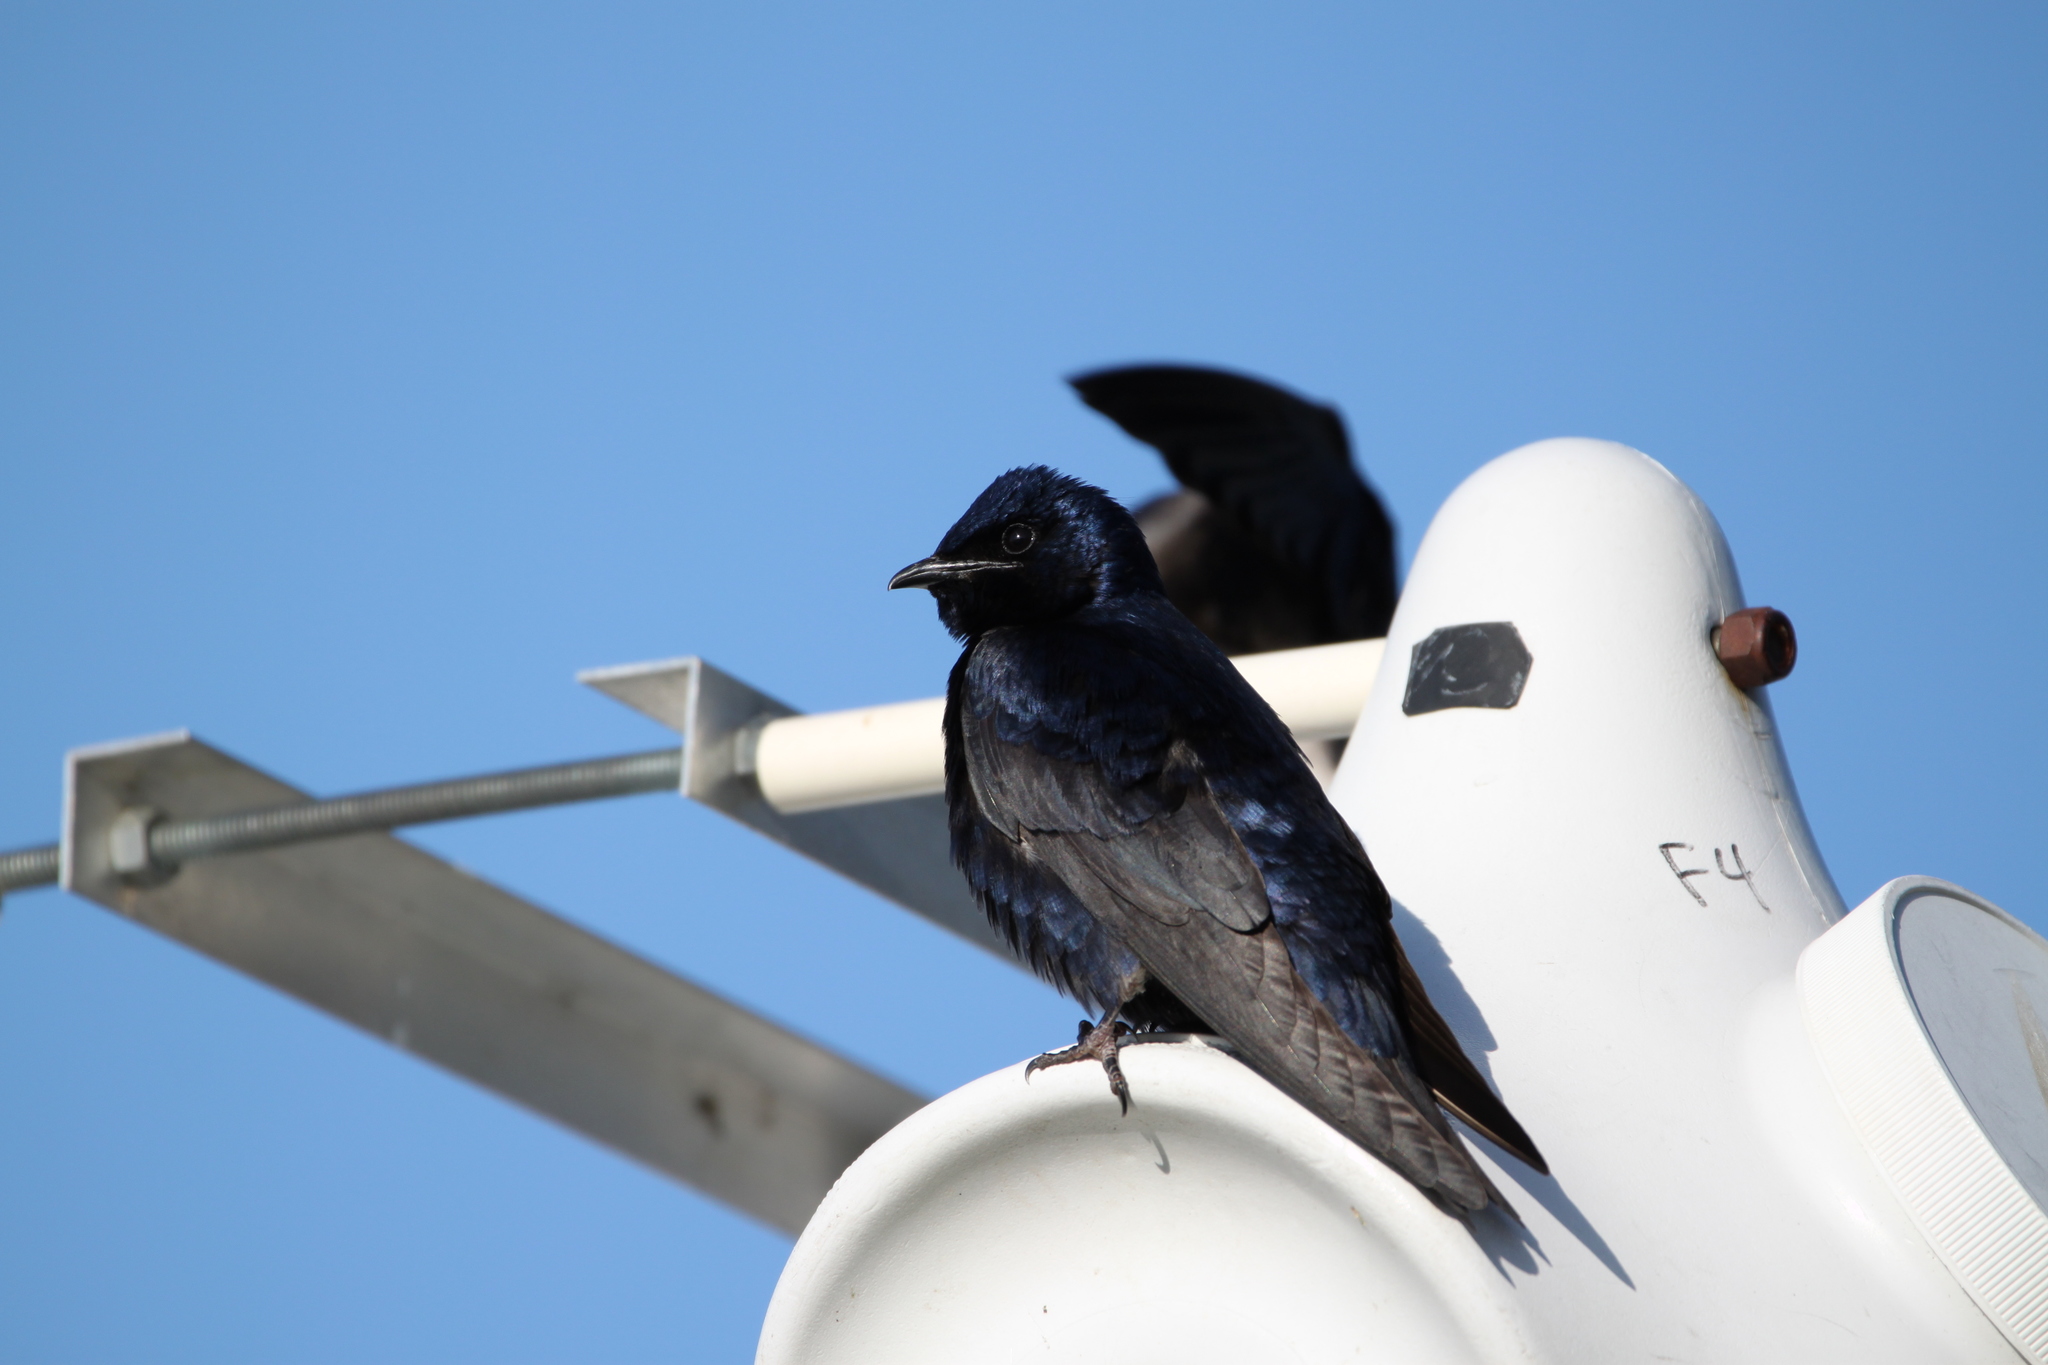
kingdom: Animalia
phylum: Chordata
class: Aves
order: Passeriformes
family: Hirundinidae
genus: Progne
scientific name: Progne subis
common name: Purple martin
